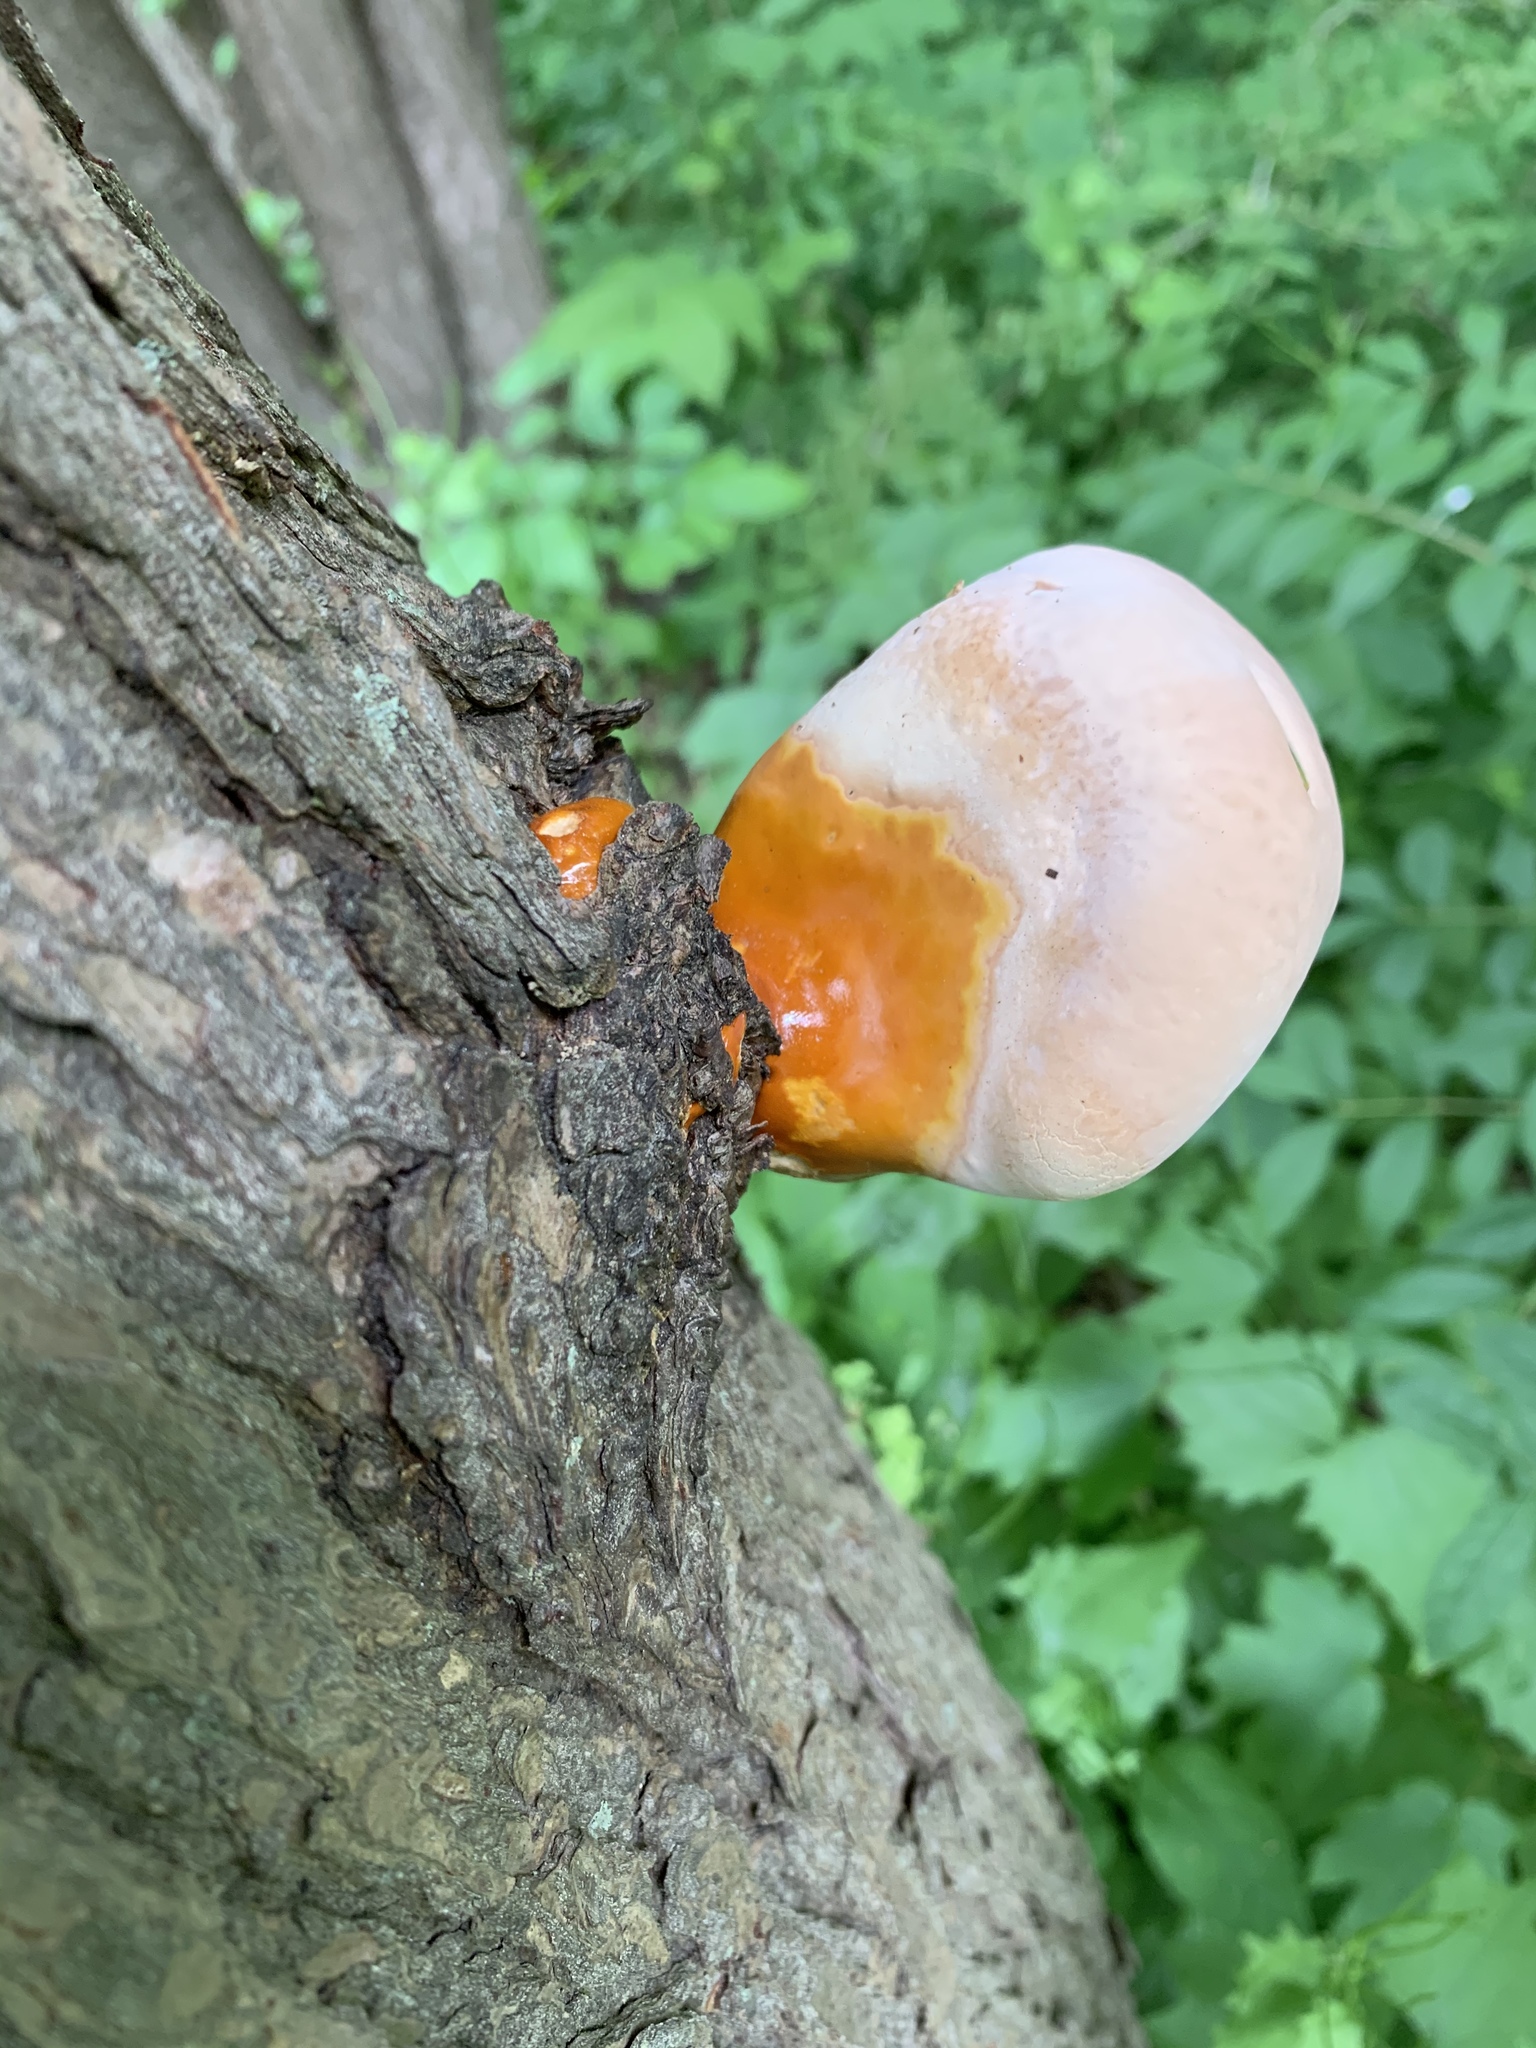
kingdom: Fungi
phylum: Basidiomycota
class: Agaricomycetes
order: Polyporales
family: Polyporaceae
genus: Ganoderma
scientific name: Ganoderma tsugae
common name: Hemlock varnish shelf
